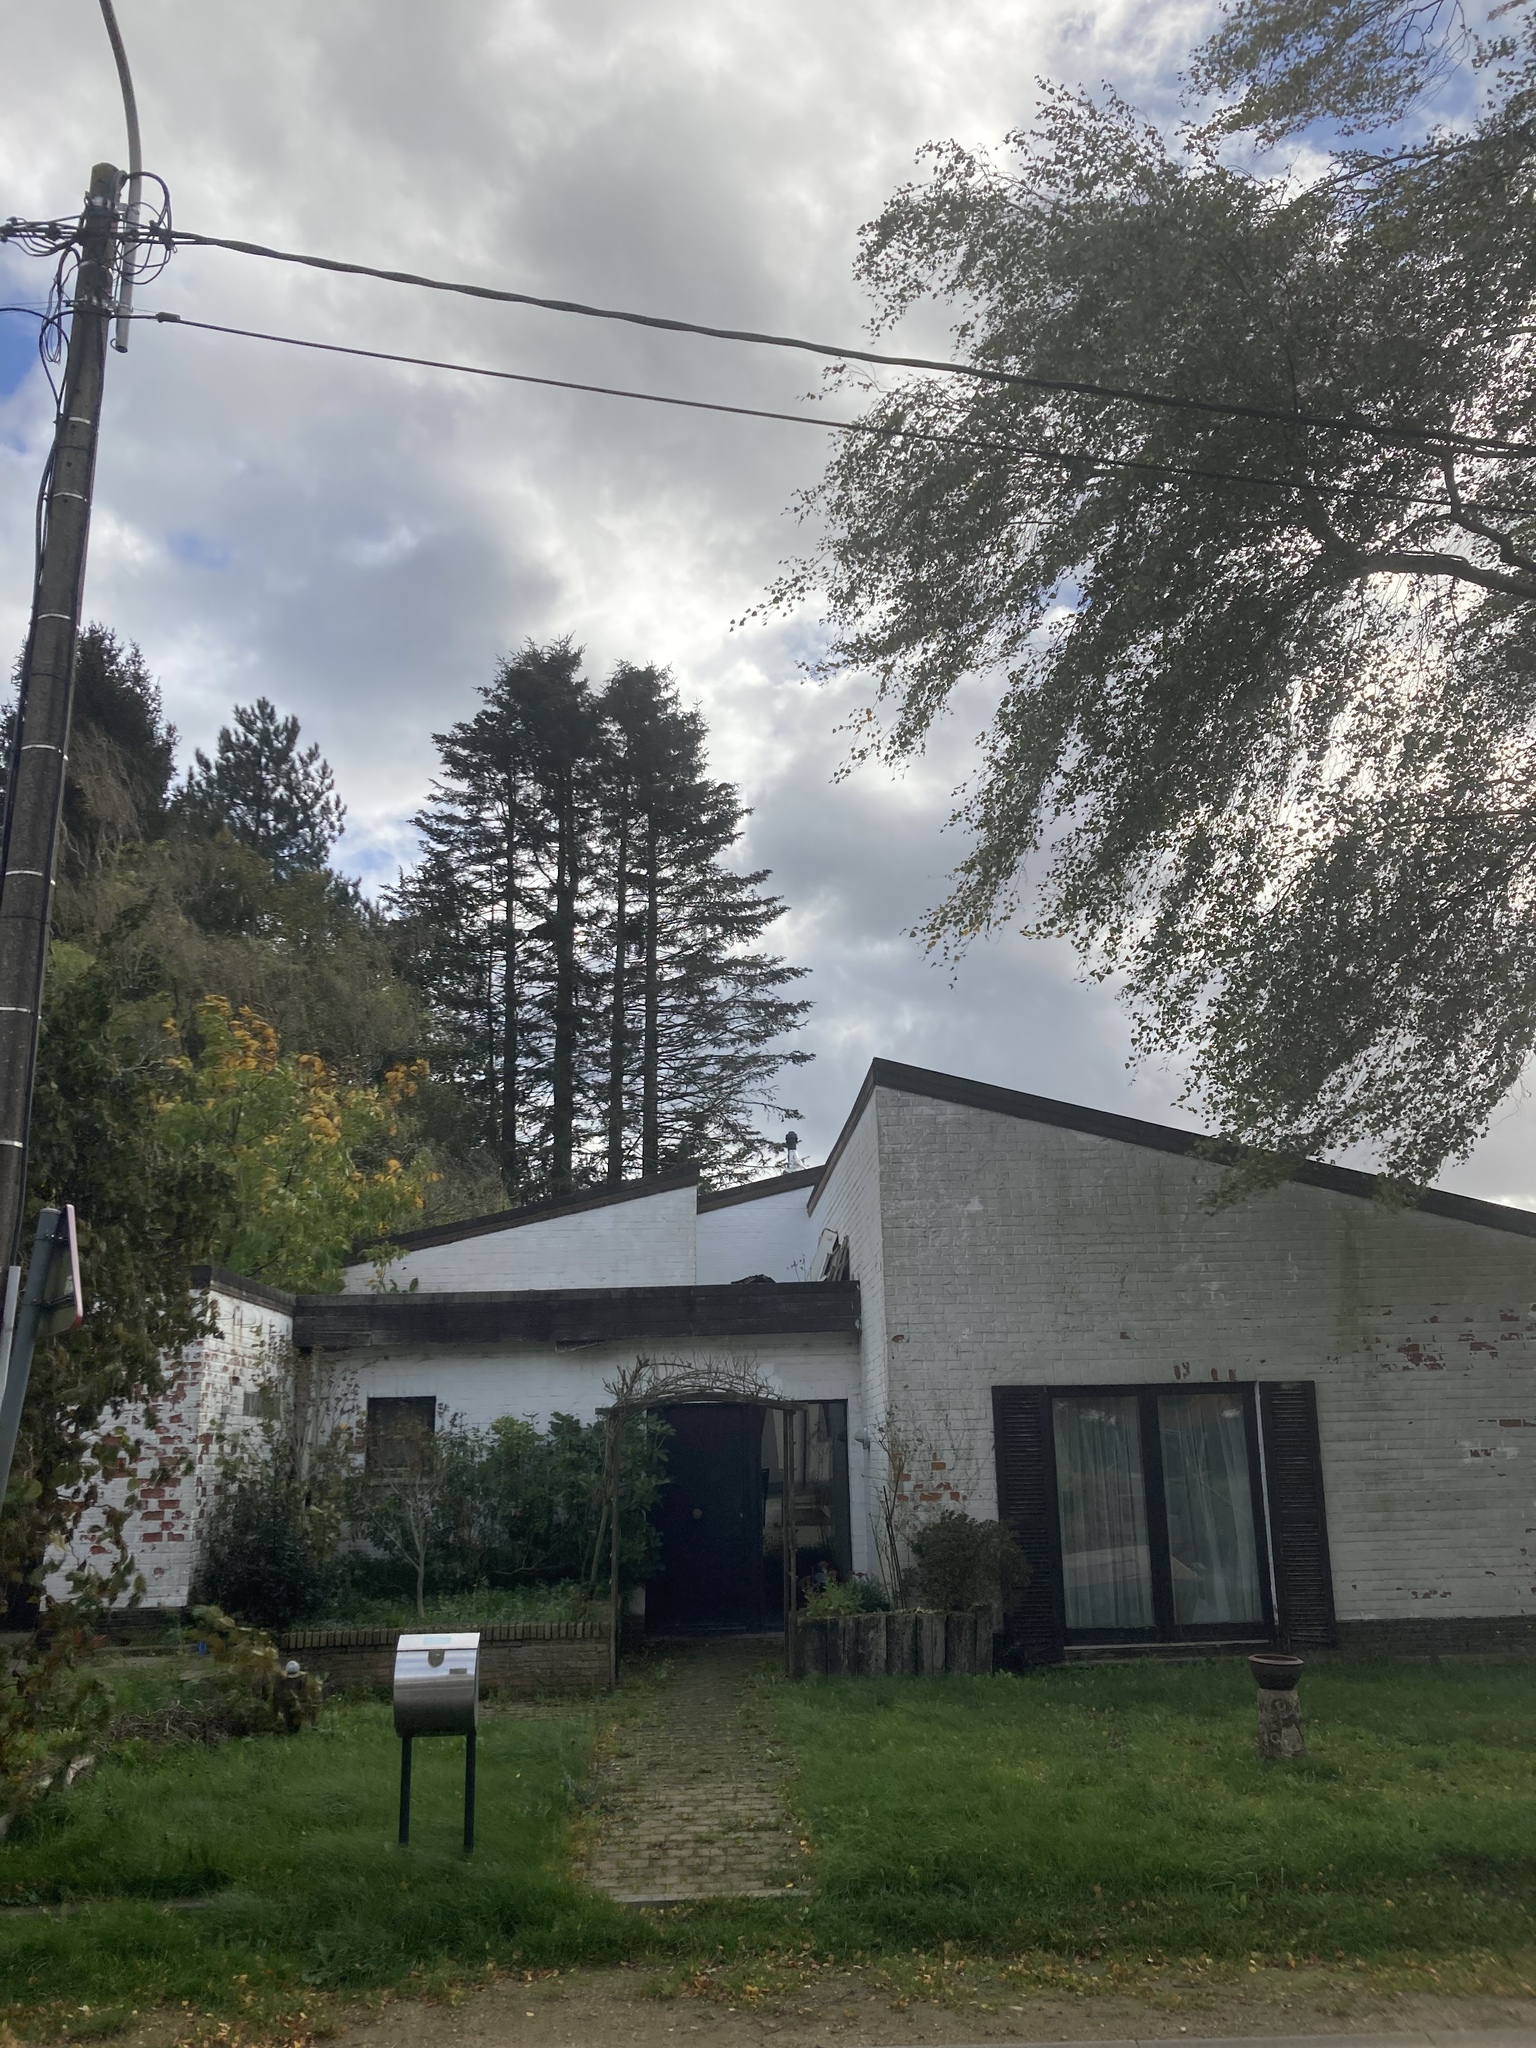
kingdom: Animalia
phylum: Arthropoda
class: Insecta
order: Hymenoptera
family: Vespidae
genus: Vespa
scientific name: Vespa velutina
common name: Asian hornet
